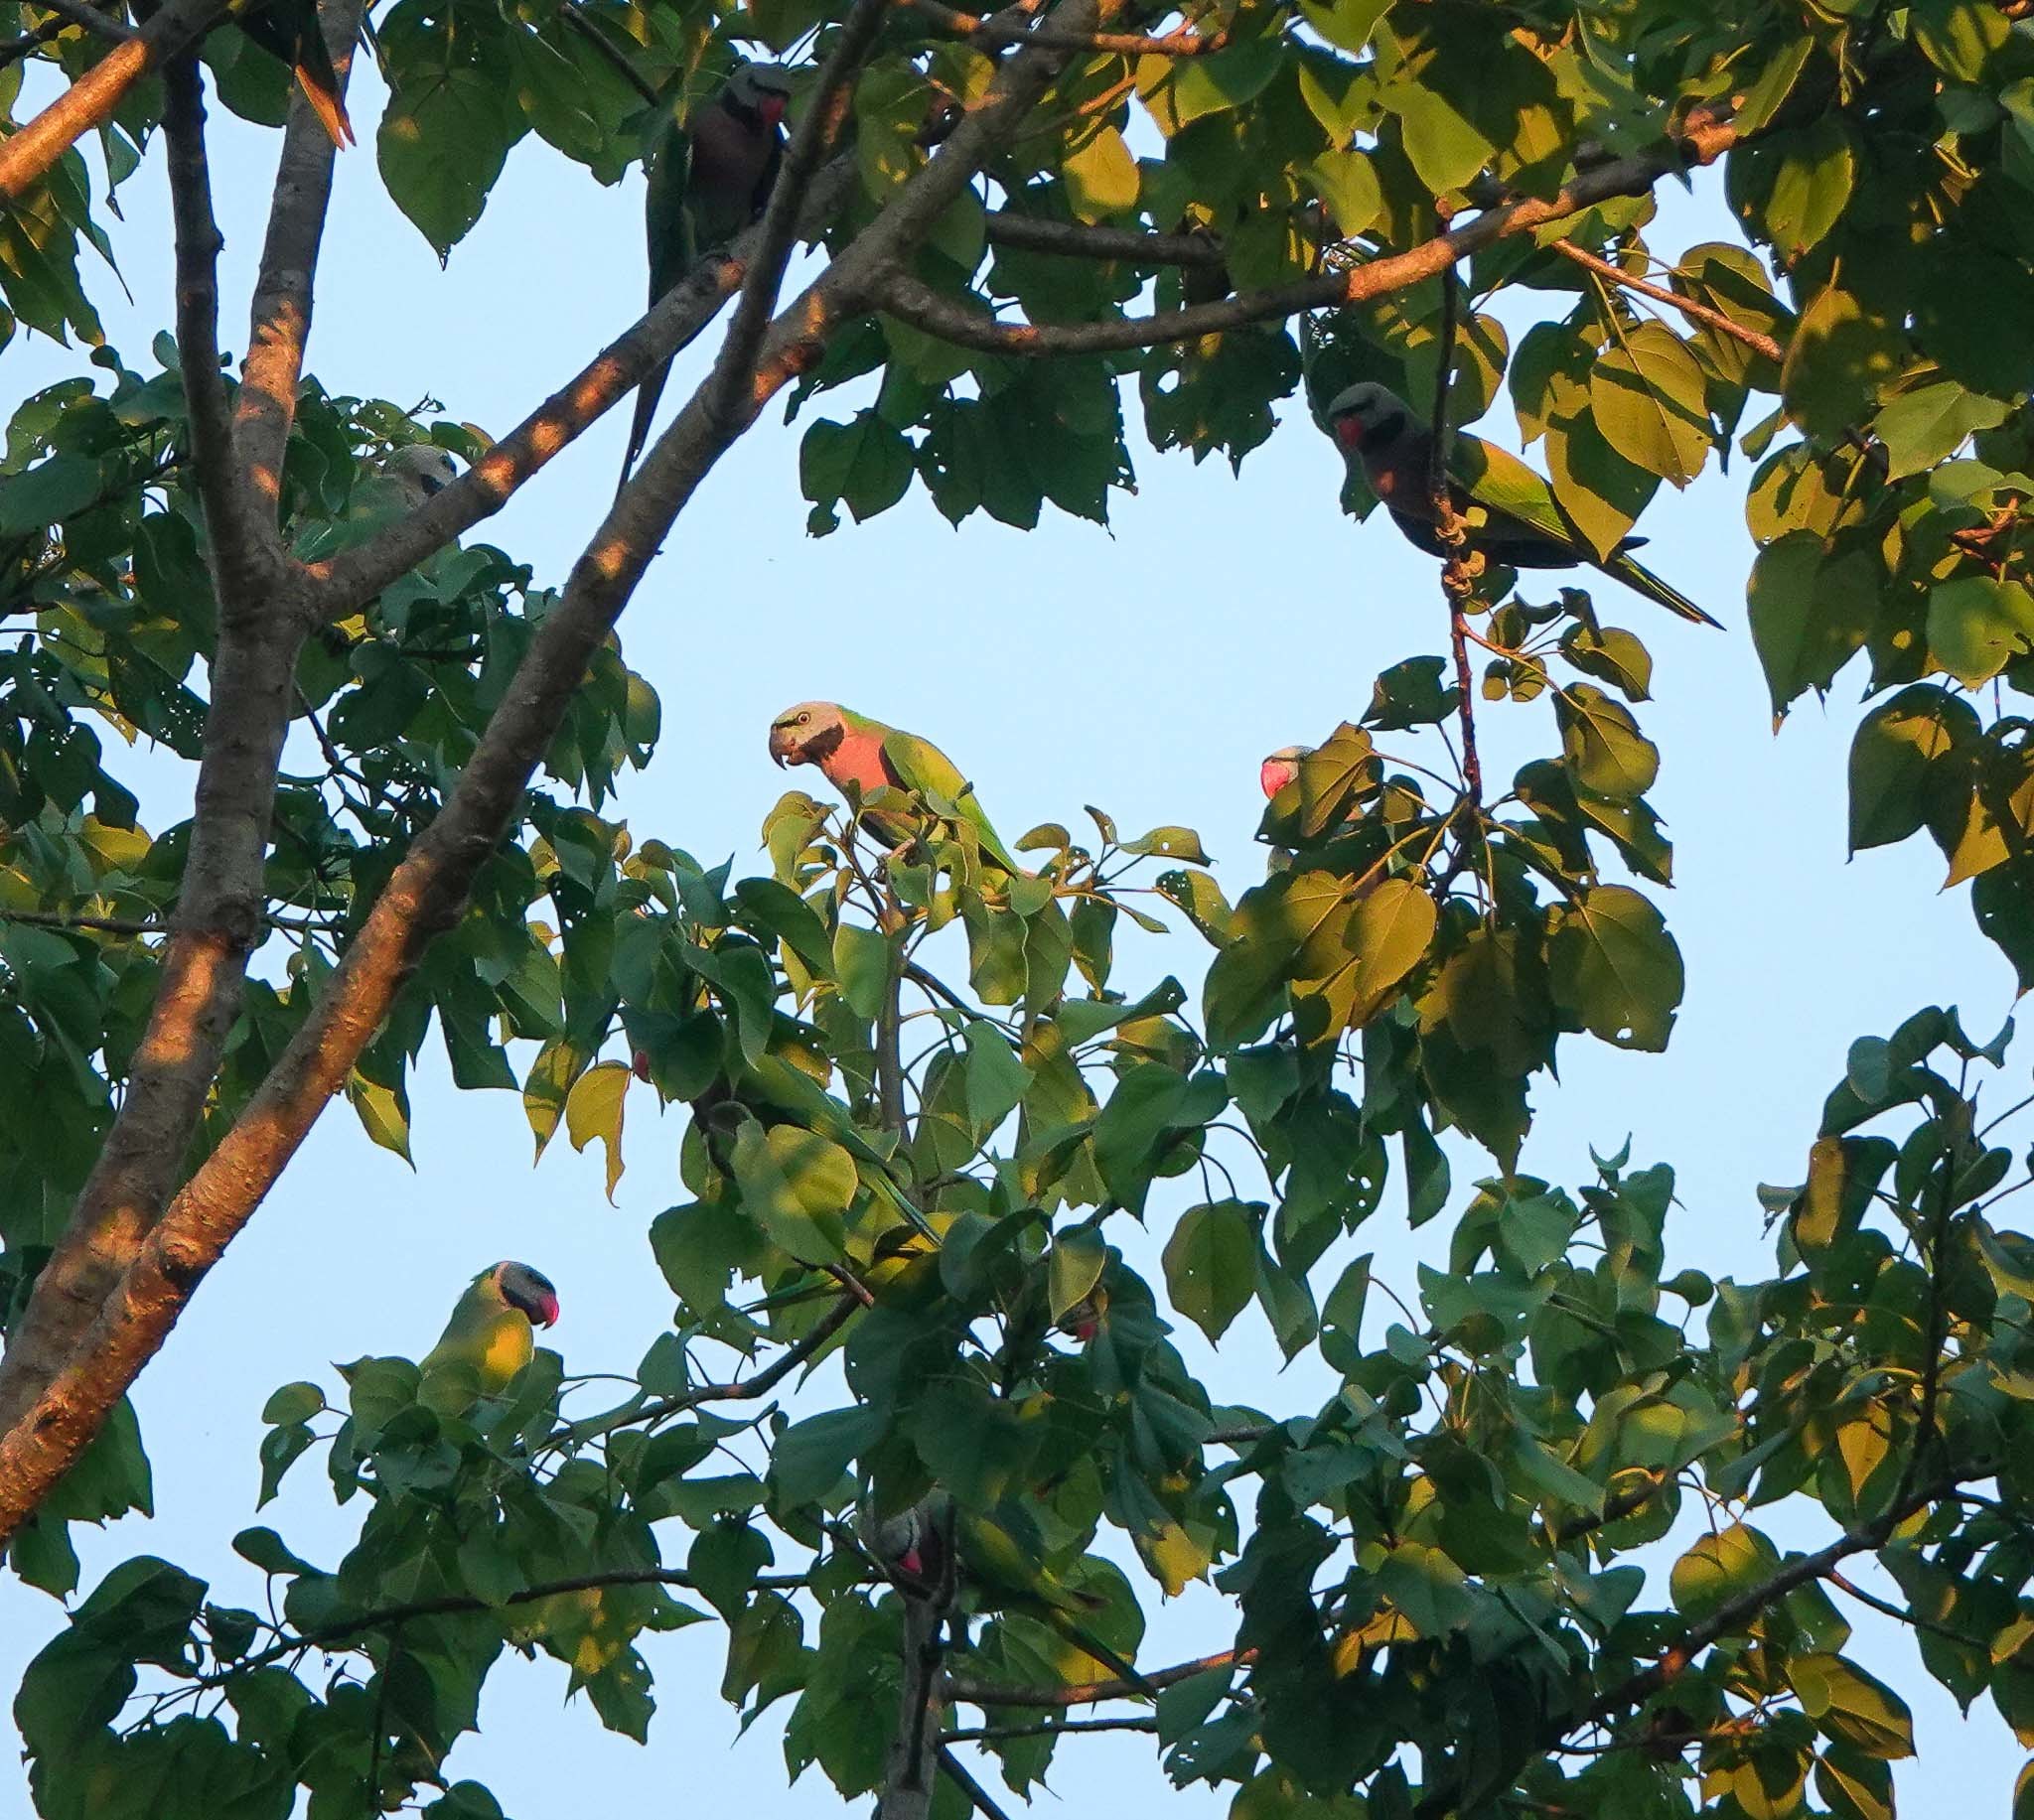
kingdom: Animalia
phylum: Chordata
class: Aves
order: Psittaciformes
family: Psittacidae
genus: Psittacula
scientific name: Psittacula alexandri
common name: Red-breasted parakeet
